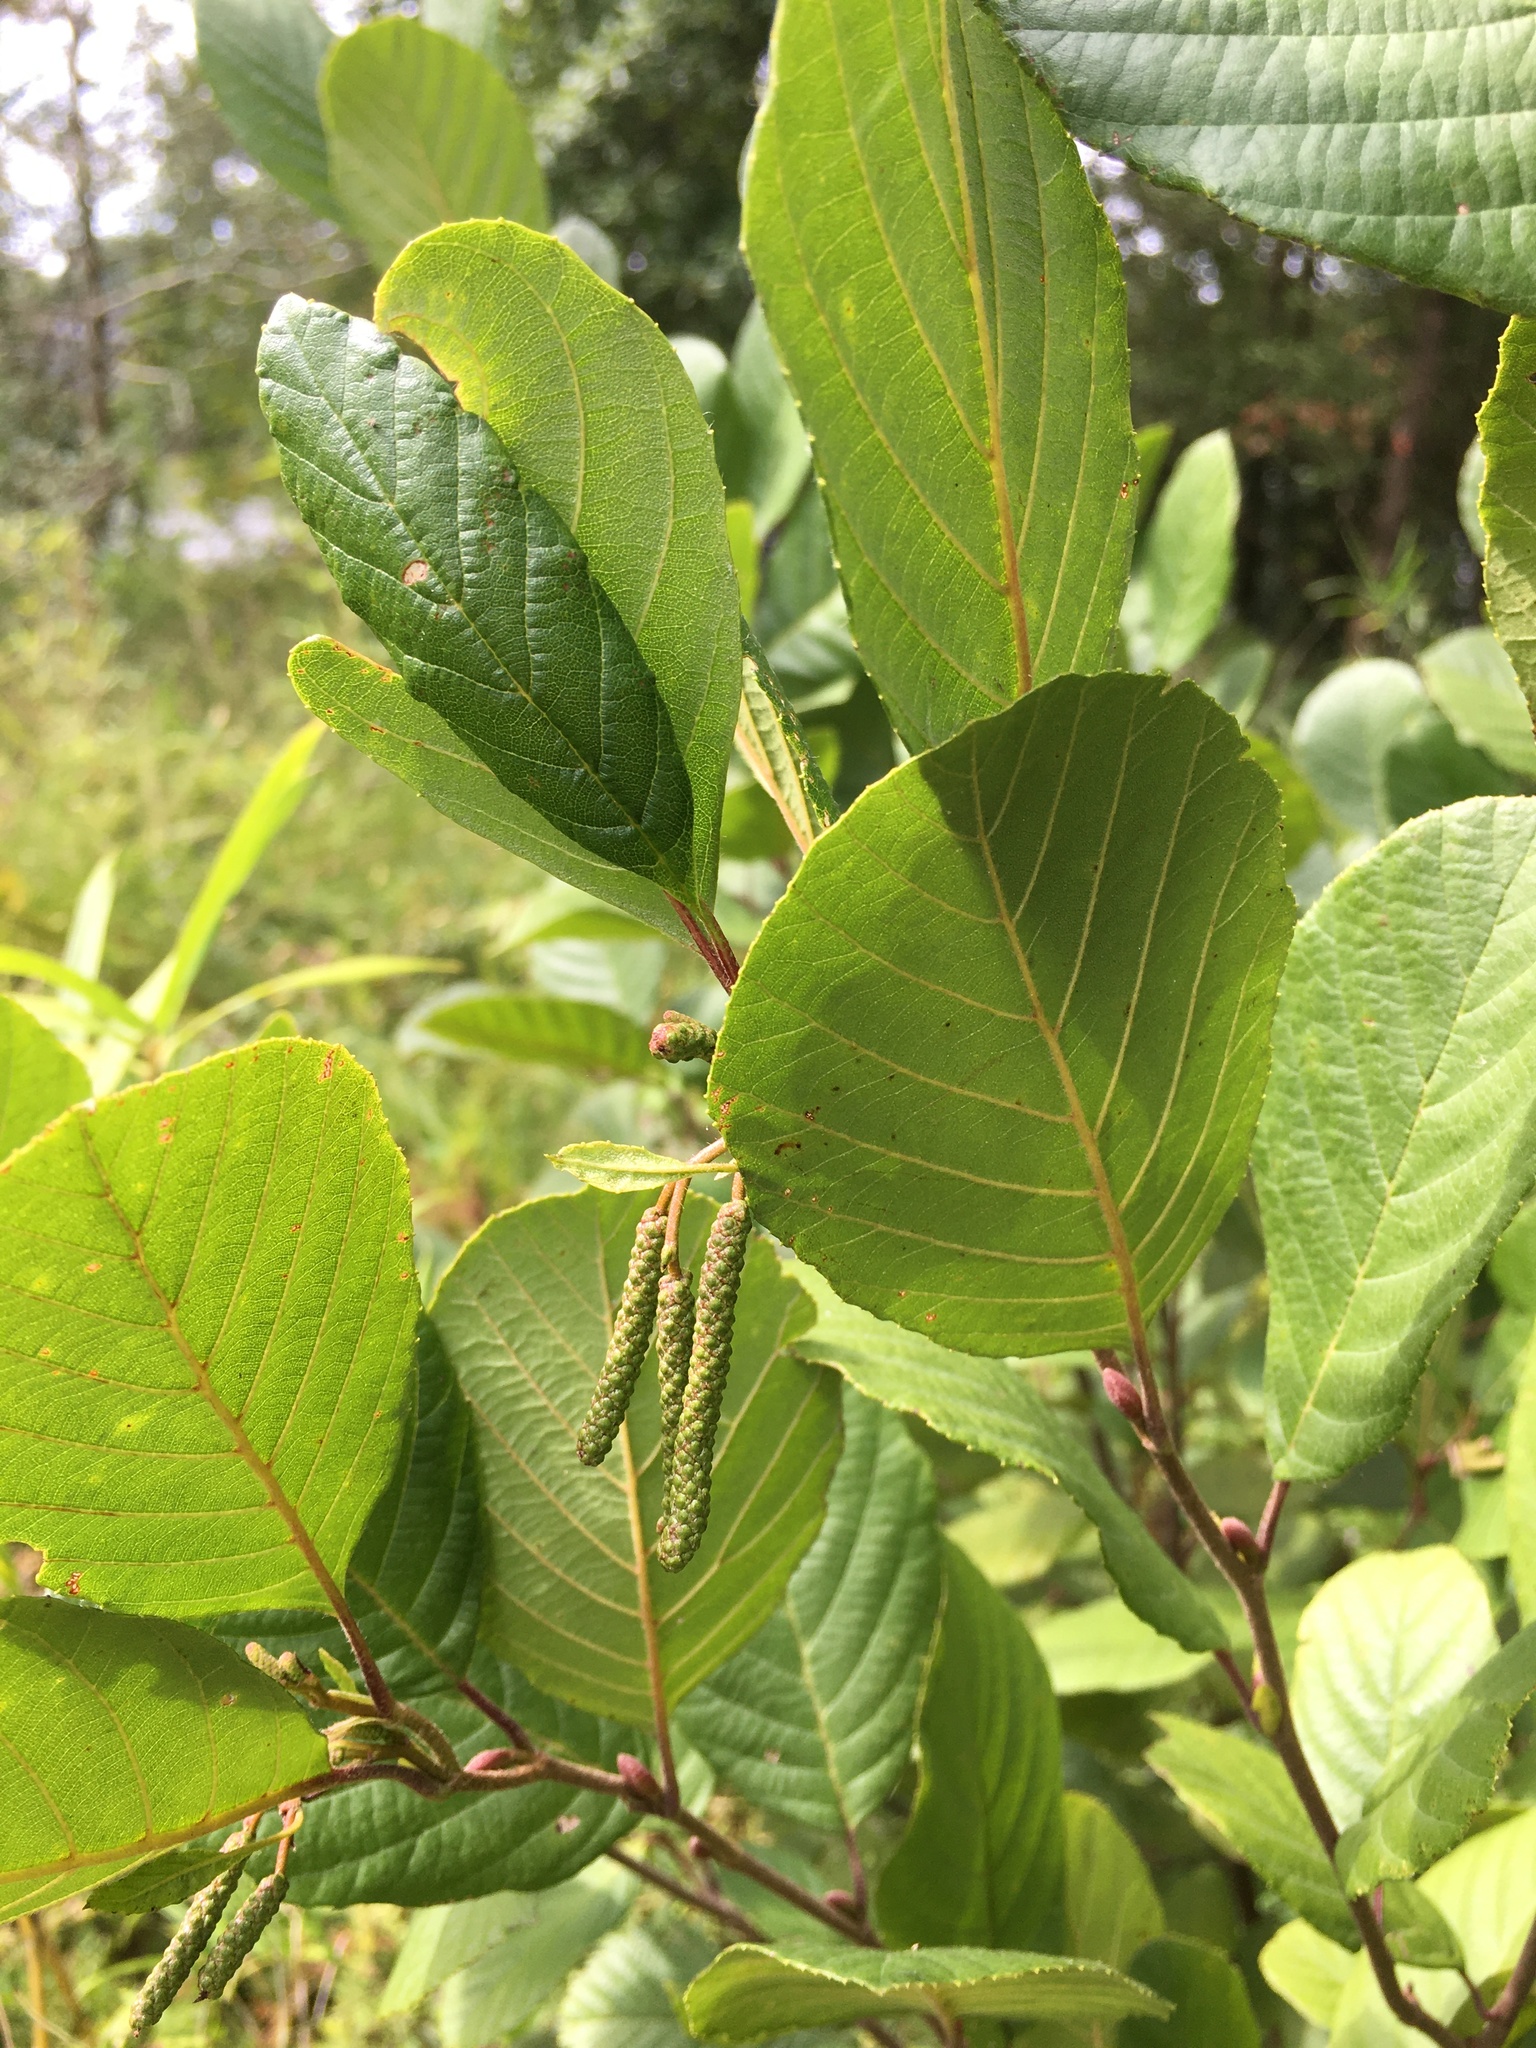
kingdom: Plantae
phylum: Tracheophyta
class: Magnoliopsida
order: Fagales
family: Betulaceae
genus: Alnus
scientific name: Alnus serrulata
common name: Hazel alder
